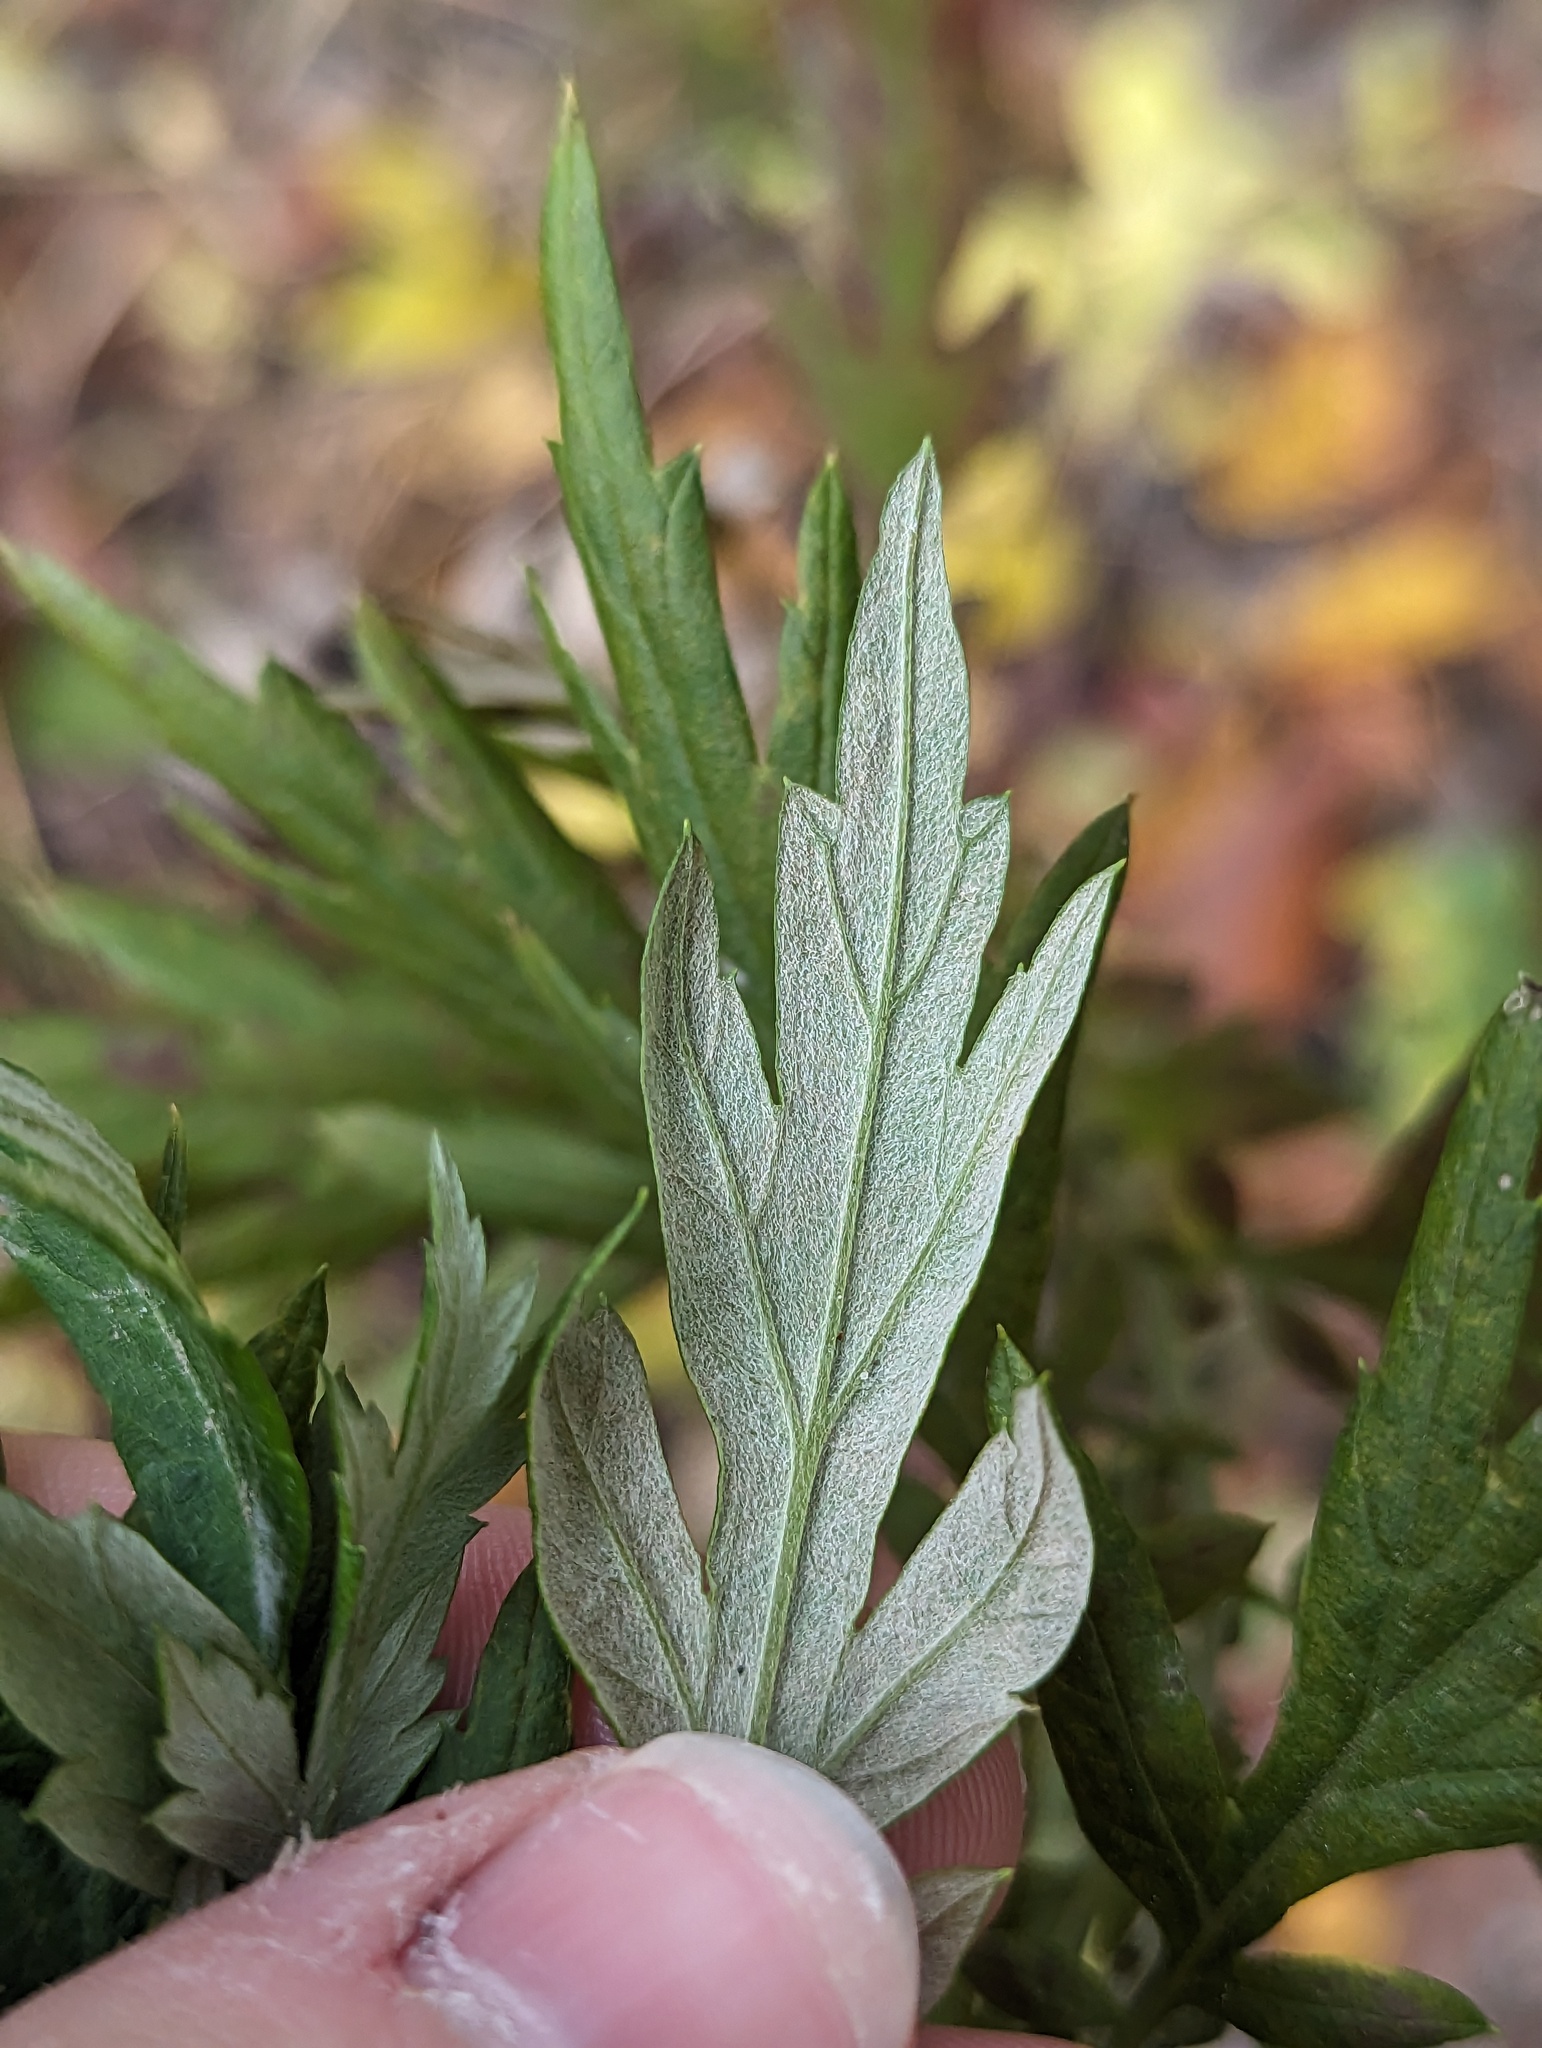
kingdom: Animalia
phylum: Arthropoda
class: Insecta
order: Diptera
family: Agromyzidae
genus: Liriomyza
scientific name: Liriomyza ptarmicae
